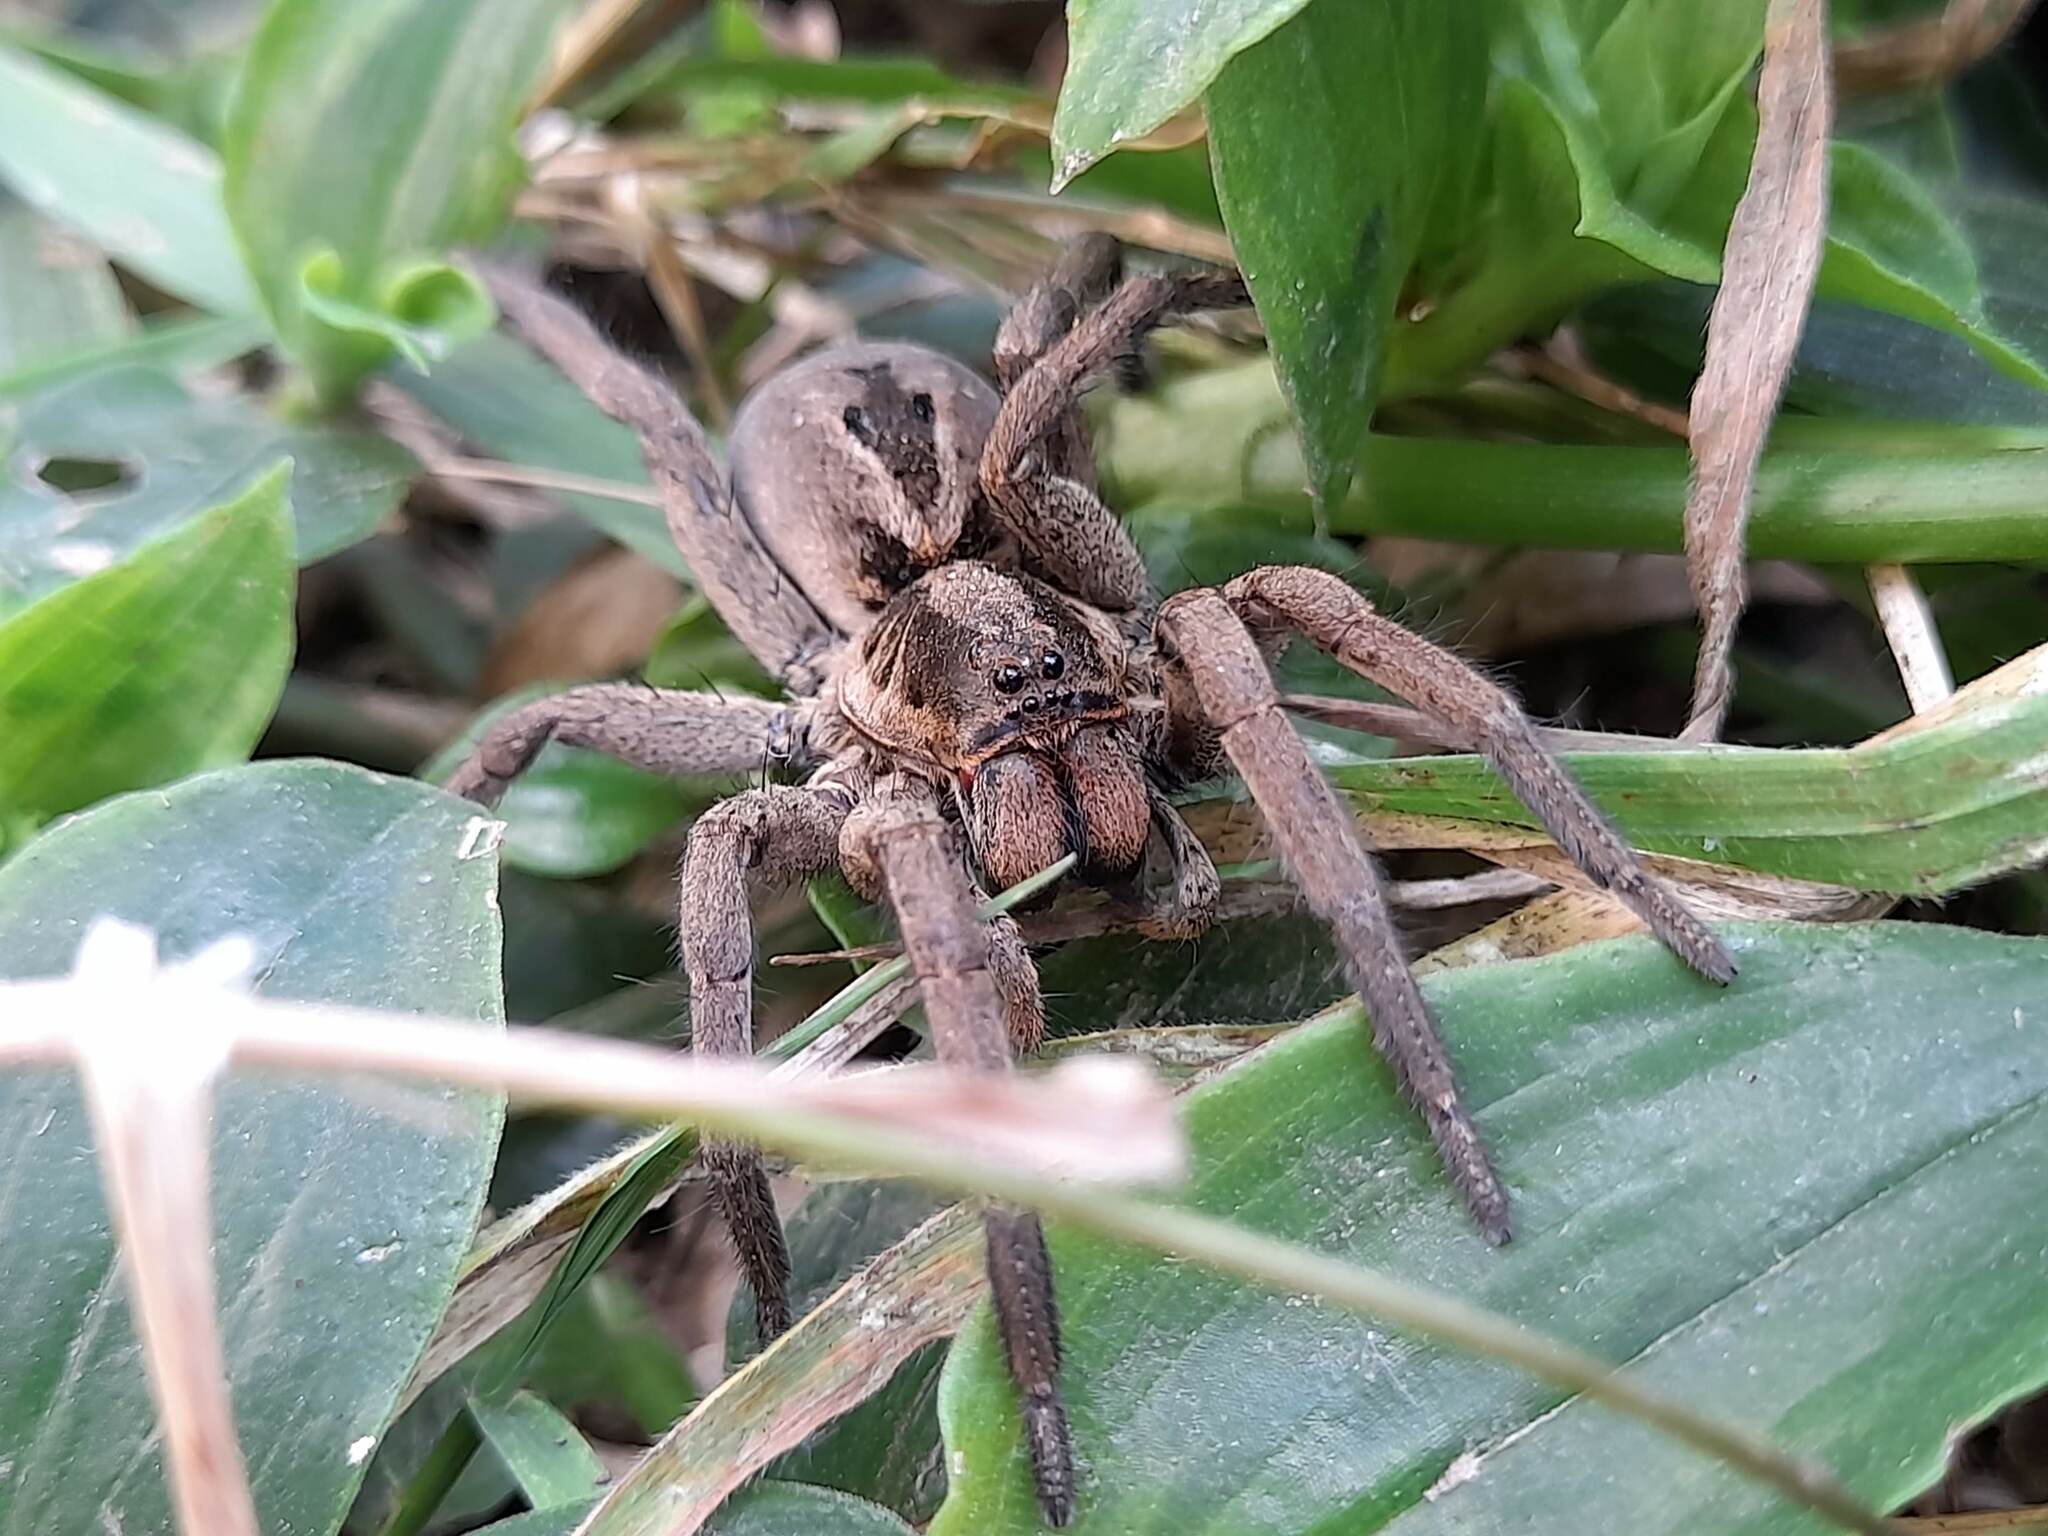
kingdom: Animalia
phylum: Arthropoda
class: Arachnida
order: Araneae
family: Lycosidae
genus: Lycosa
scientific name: Lycosa erythrognatha
